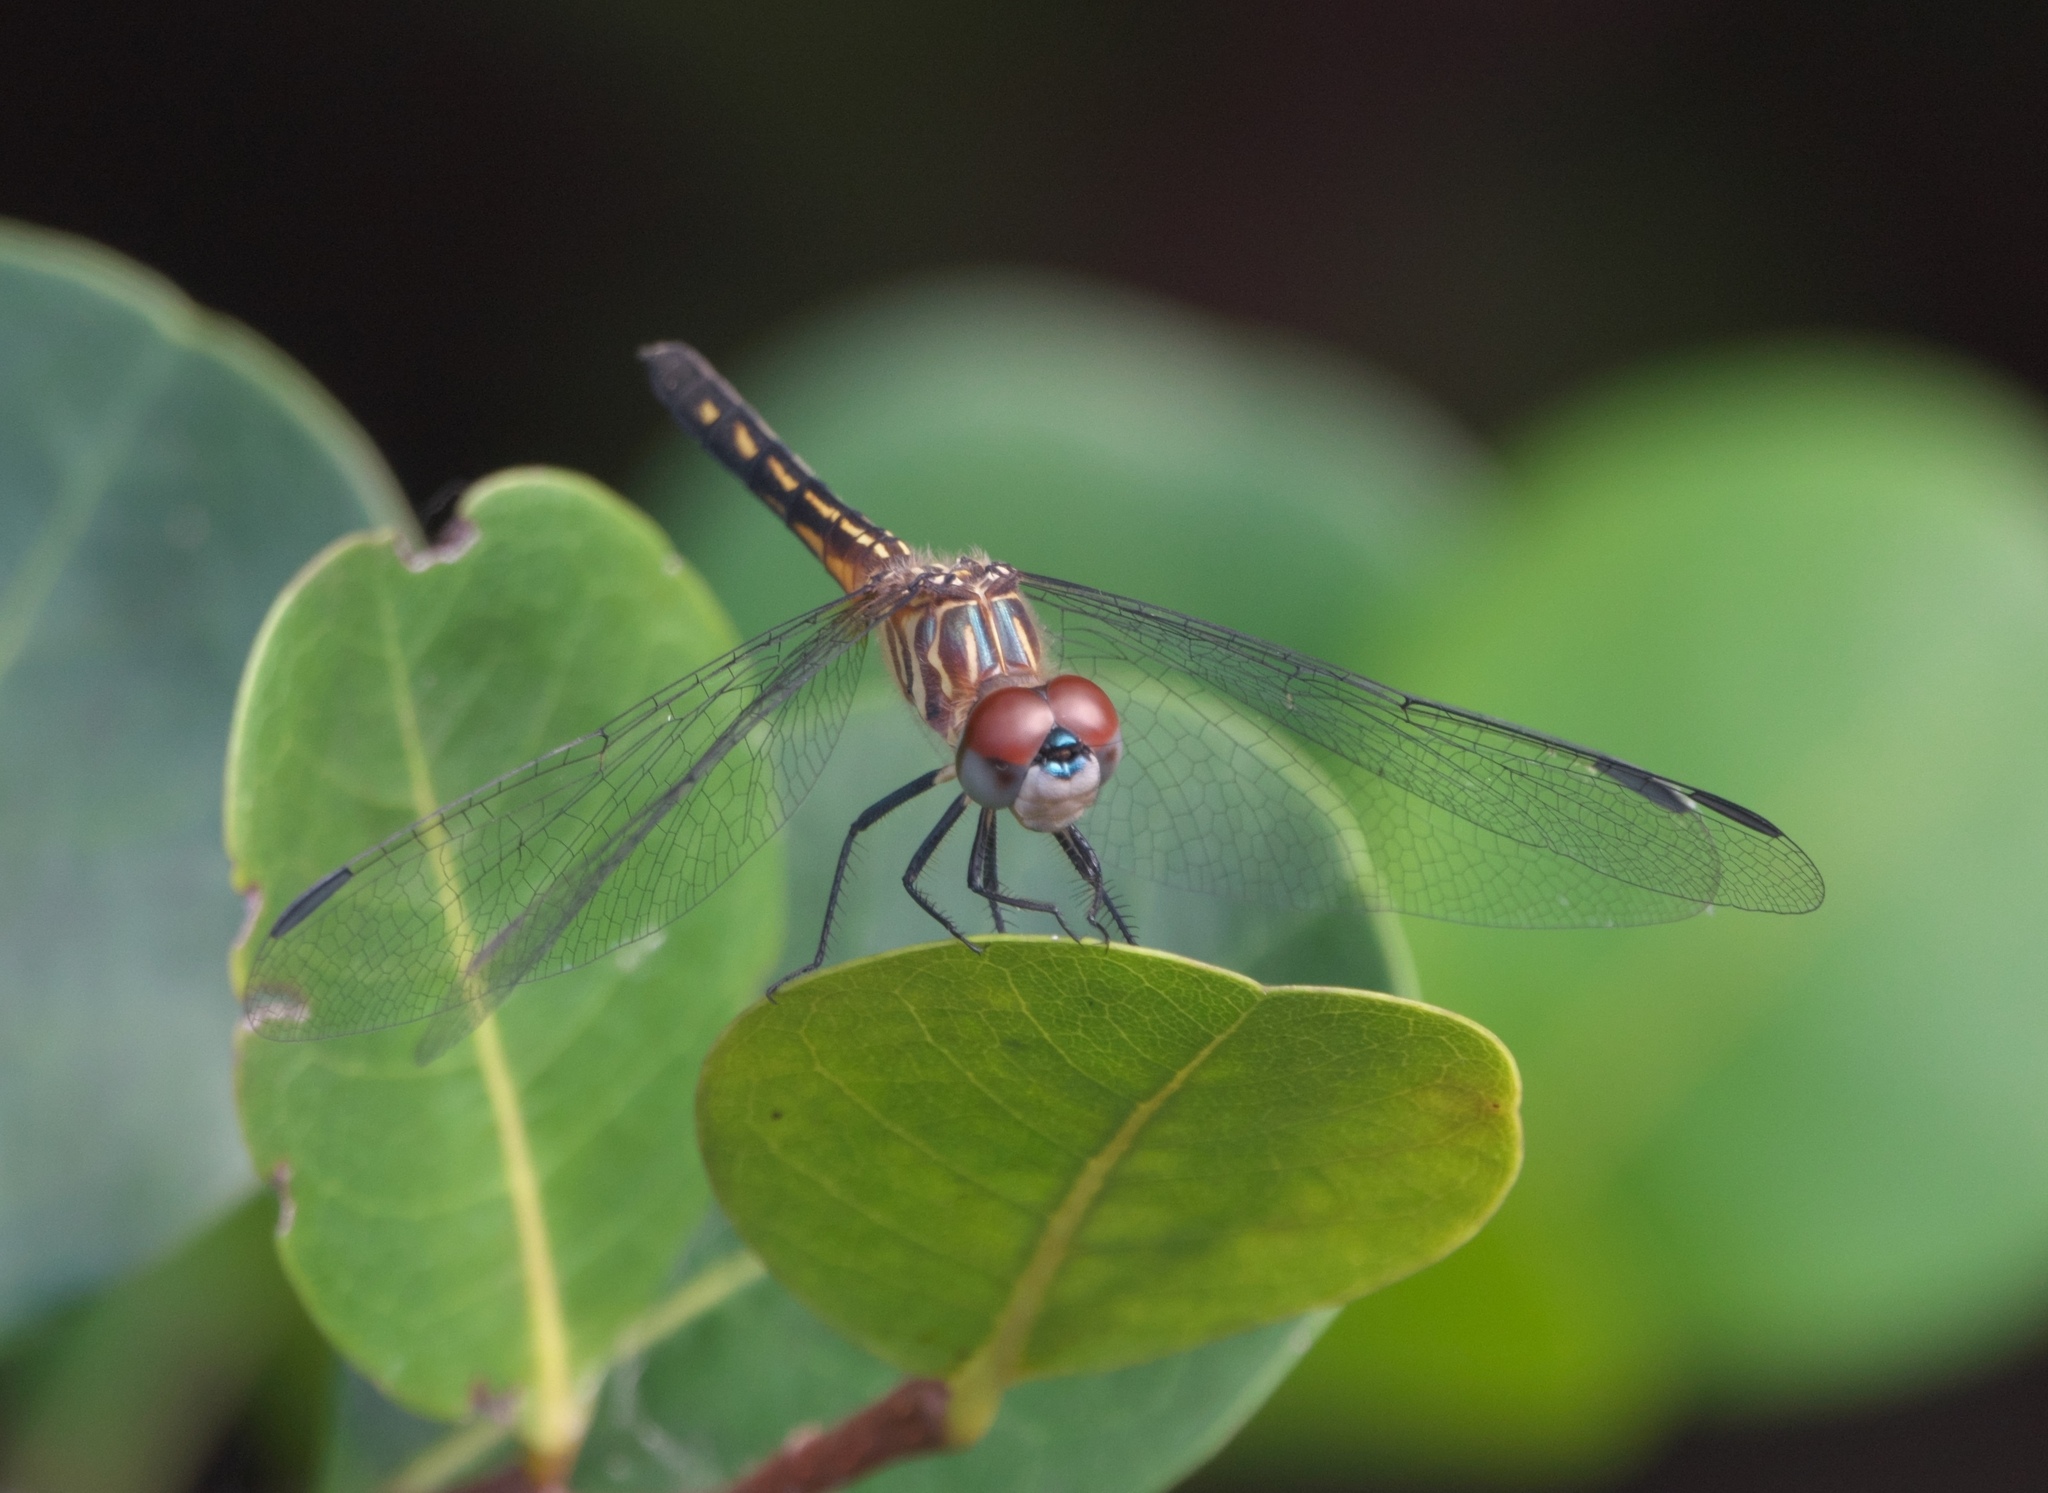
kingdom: Animalia
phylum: Arthropoda
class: Insecta
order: Odonata
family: Libellulidae
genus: Pachydiplax
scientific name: Pachydiplax longipennis
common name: Blue dasher
